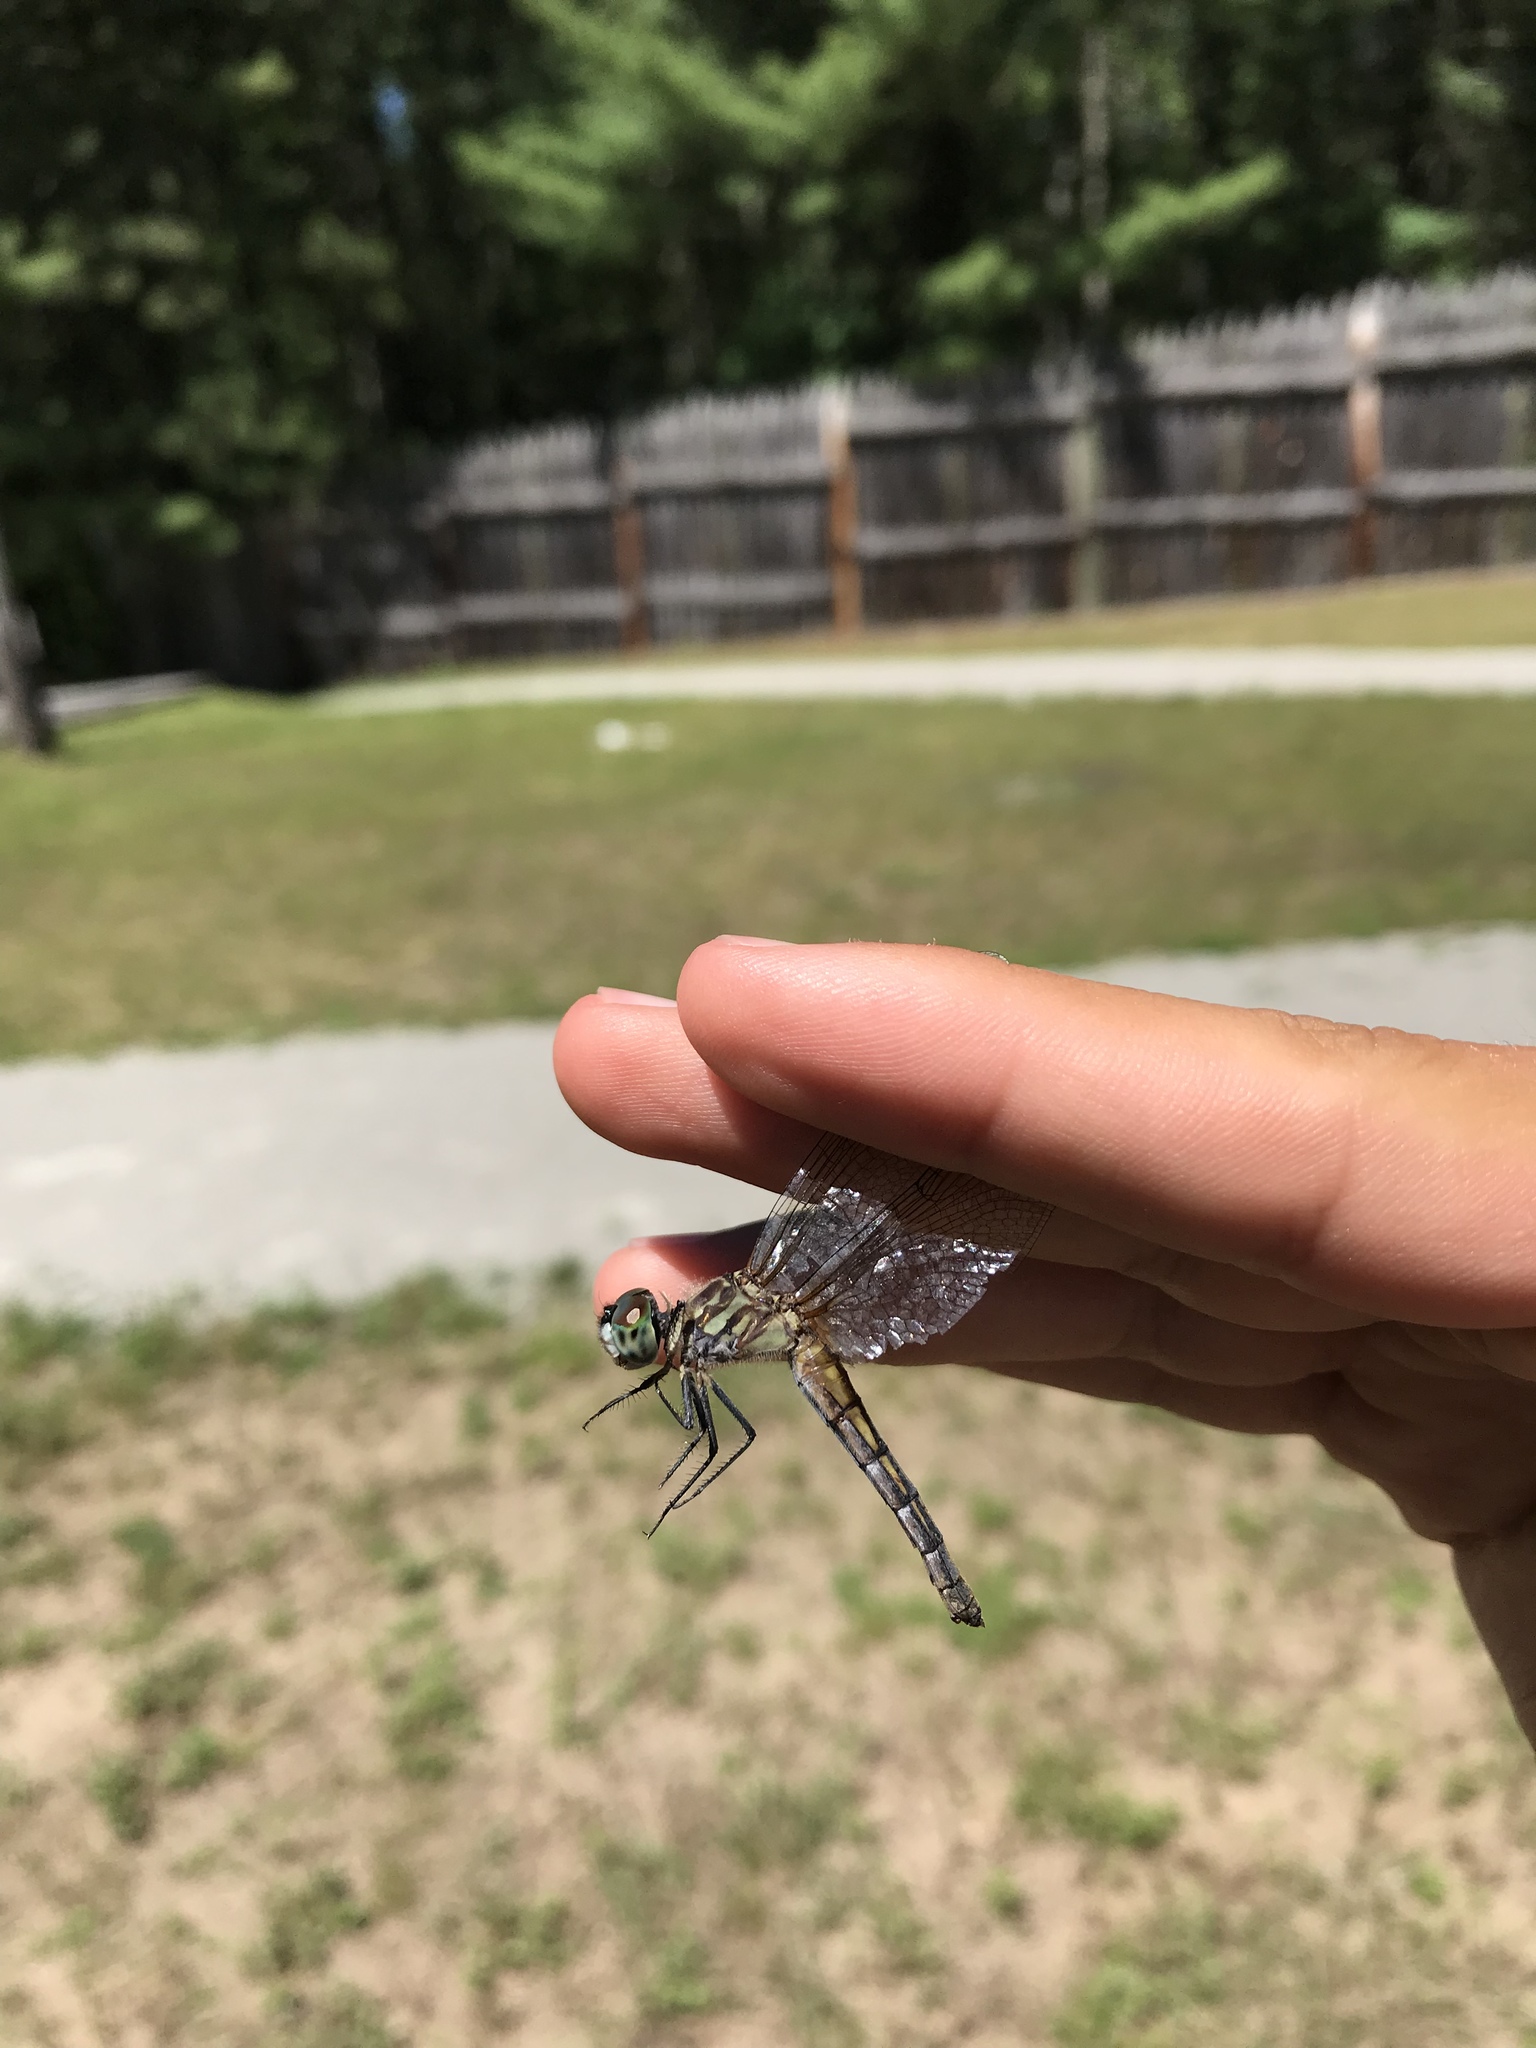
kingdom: Animalia
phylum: Arthropoda
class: Insecta
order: Odonata
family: Libellulidae
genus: Pachydiplax
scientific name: Pachydiplax longipennis
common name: Blue dasher
